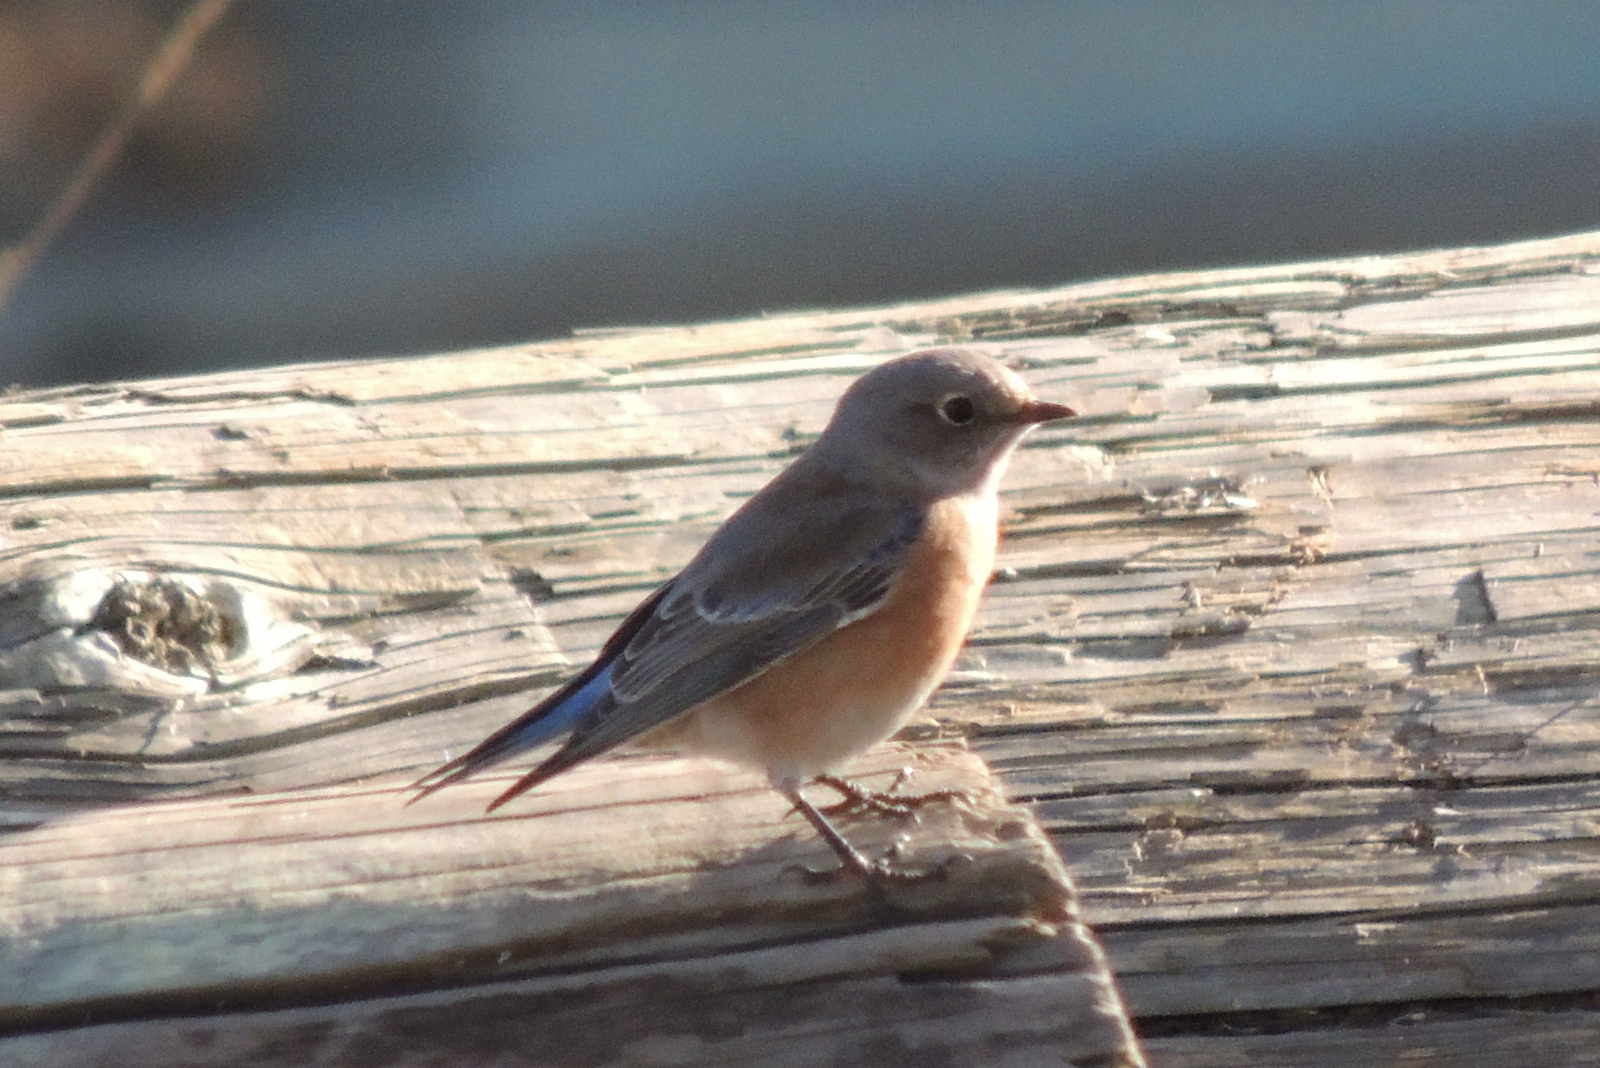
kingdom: Animalia
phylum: Chordata
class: Aves
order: Passeriformes
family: Turdidae
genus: Sialia
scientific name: Sialia mexicana
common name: Western bluebird
